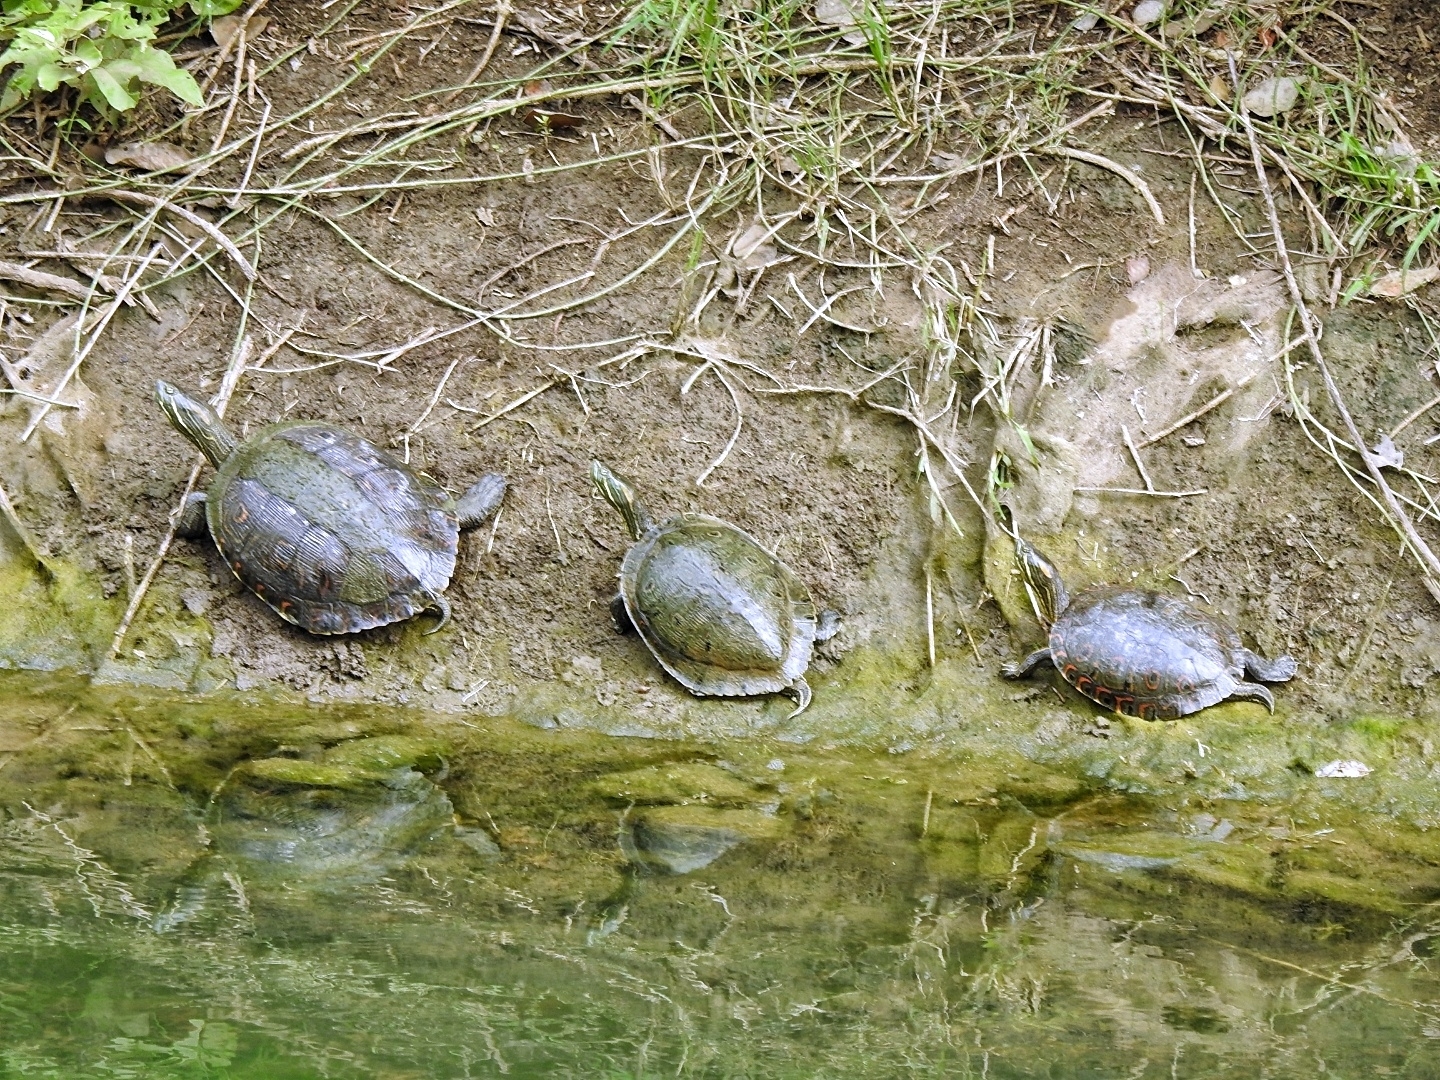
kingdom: Animalia
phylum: Chordata
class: Testudines
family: Emydidae
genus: Trachemys
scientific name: Trachemys venusta
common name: Mesoamerican slider
